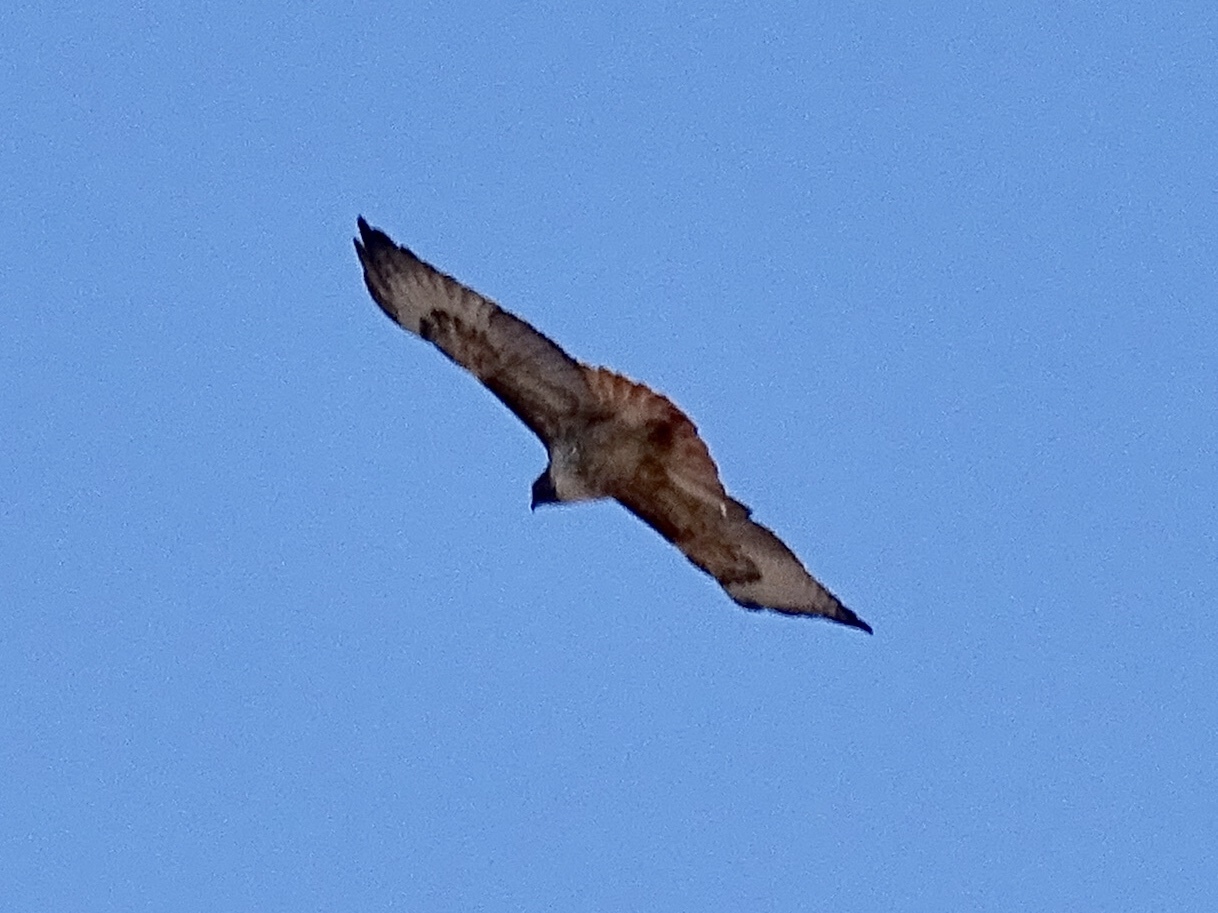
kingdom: Animalia
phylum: Chordata
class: Aves
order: Accipitriformes
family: Accipitridae
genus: Buteo
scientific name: Buteo jamaicensis
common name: Red-tailed hawk
